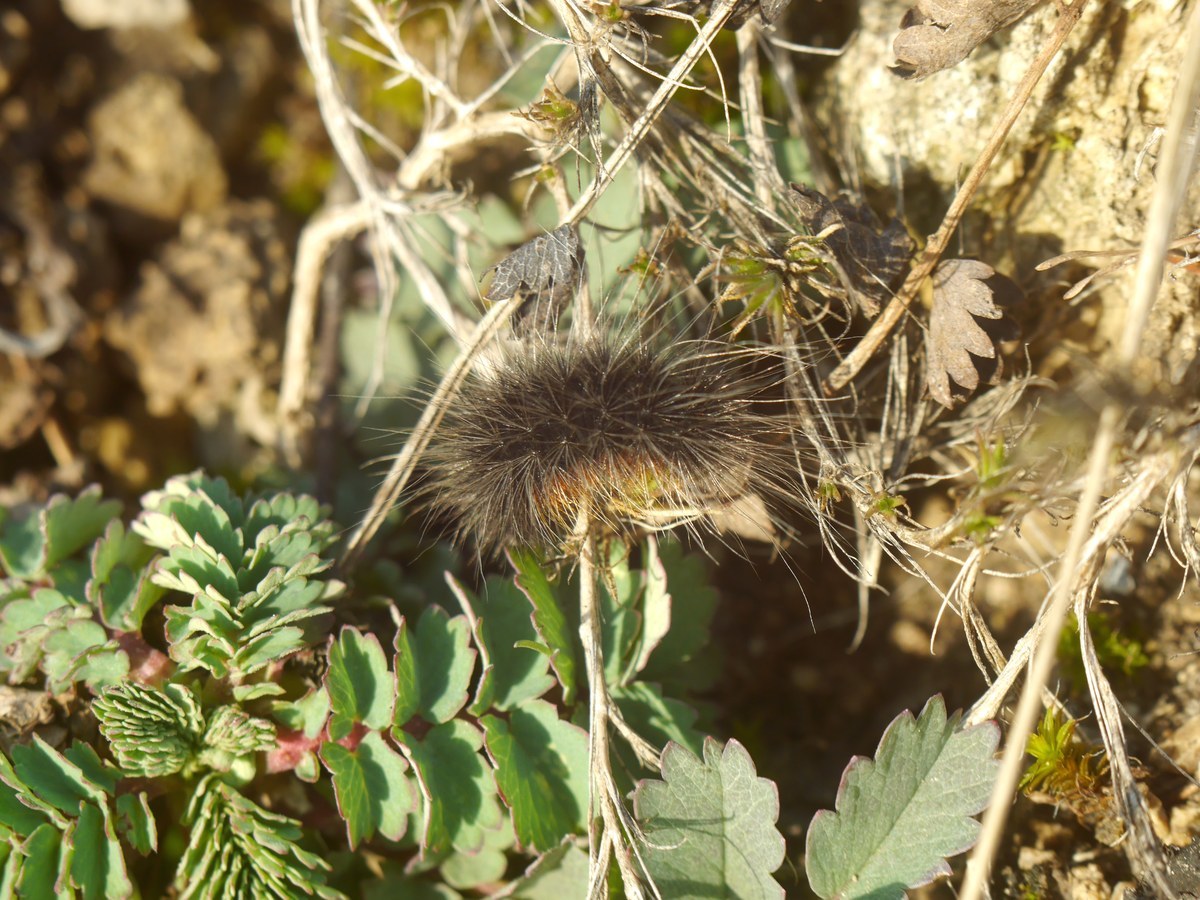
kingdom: Animalia
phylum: Arthropoda
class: Insecta
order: Lepidoptera
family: Erebidae
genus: Eucharia
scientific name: Eucharia festiva
